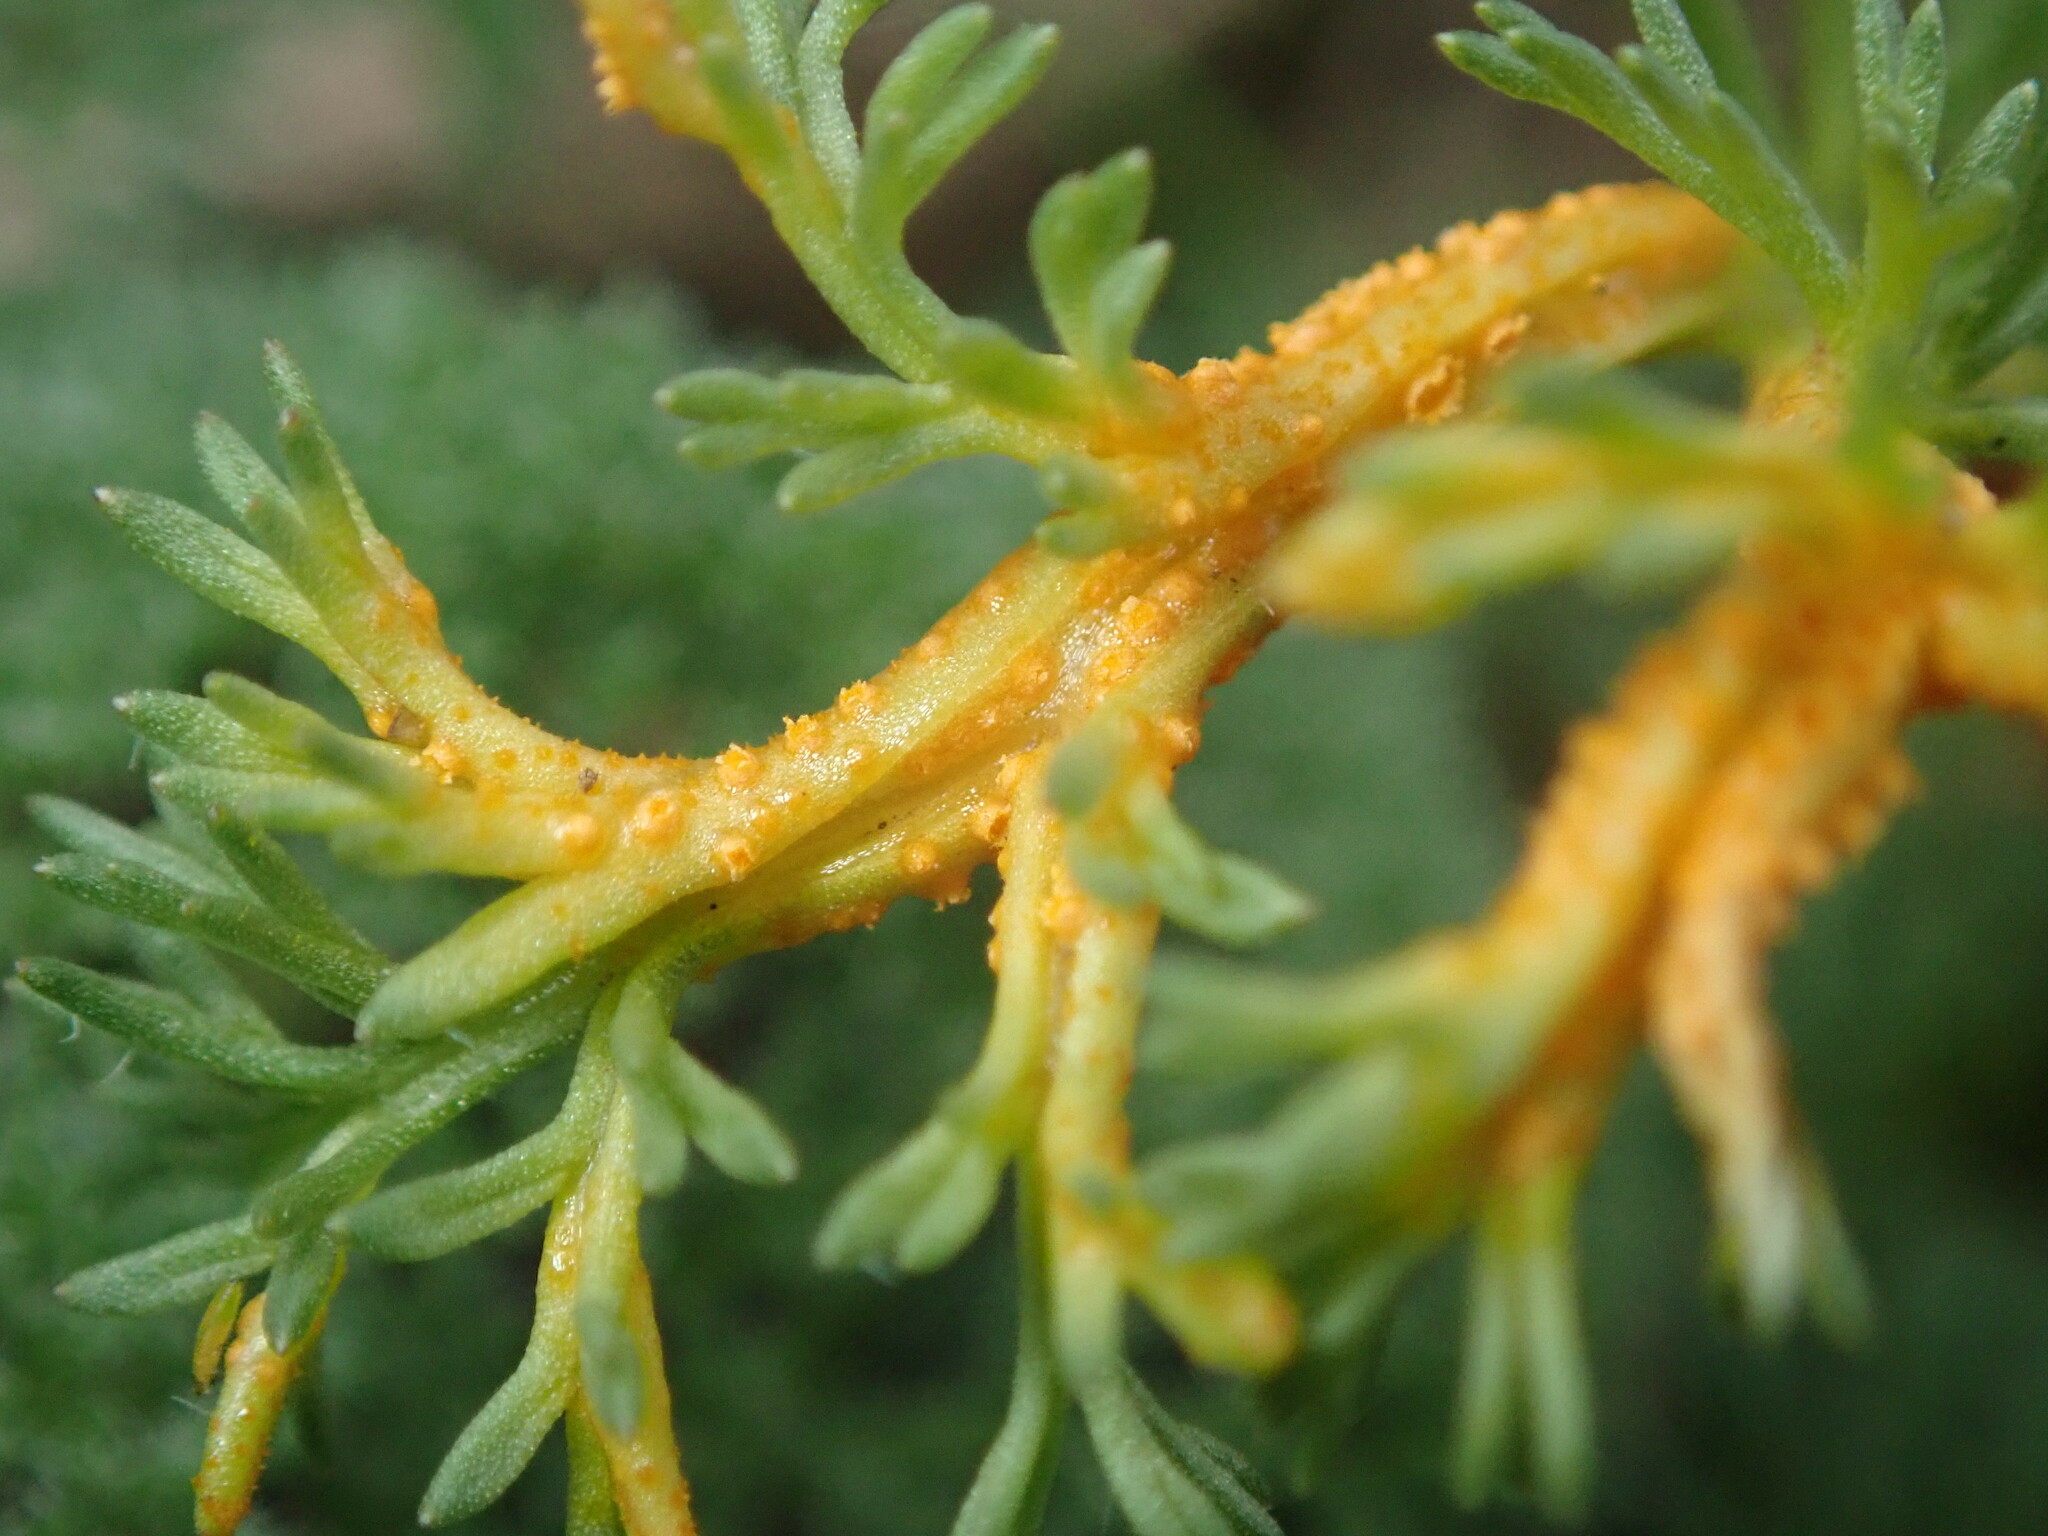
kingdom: Fungi
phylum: Basidiomycota
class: Pucciniomycetes
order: Pucciniales
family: Pucciniaceae
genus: Puccinia
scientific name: Puccinia asperior
